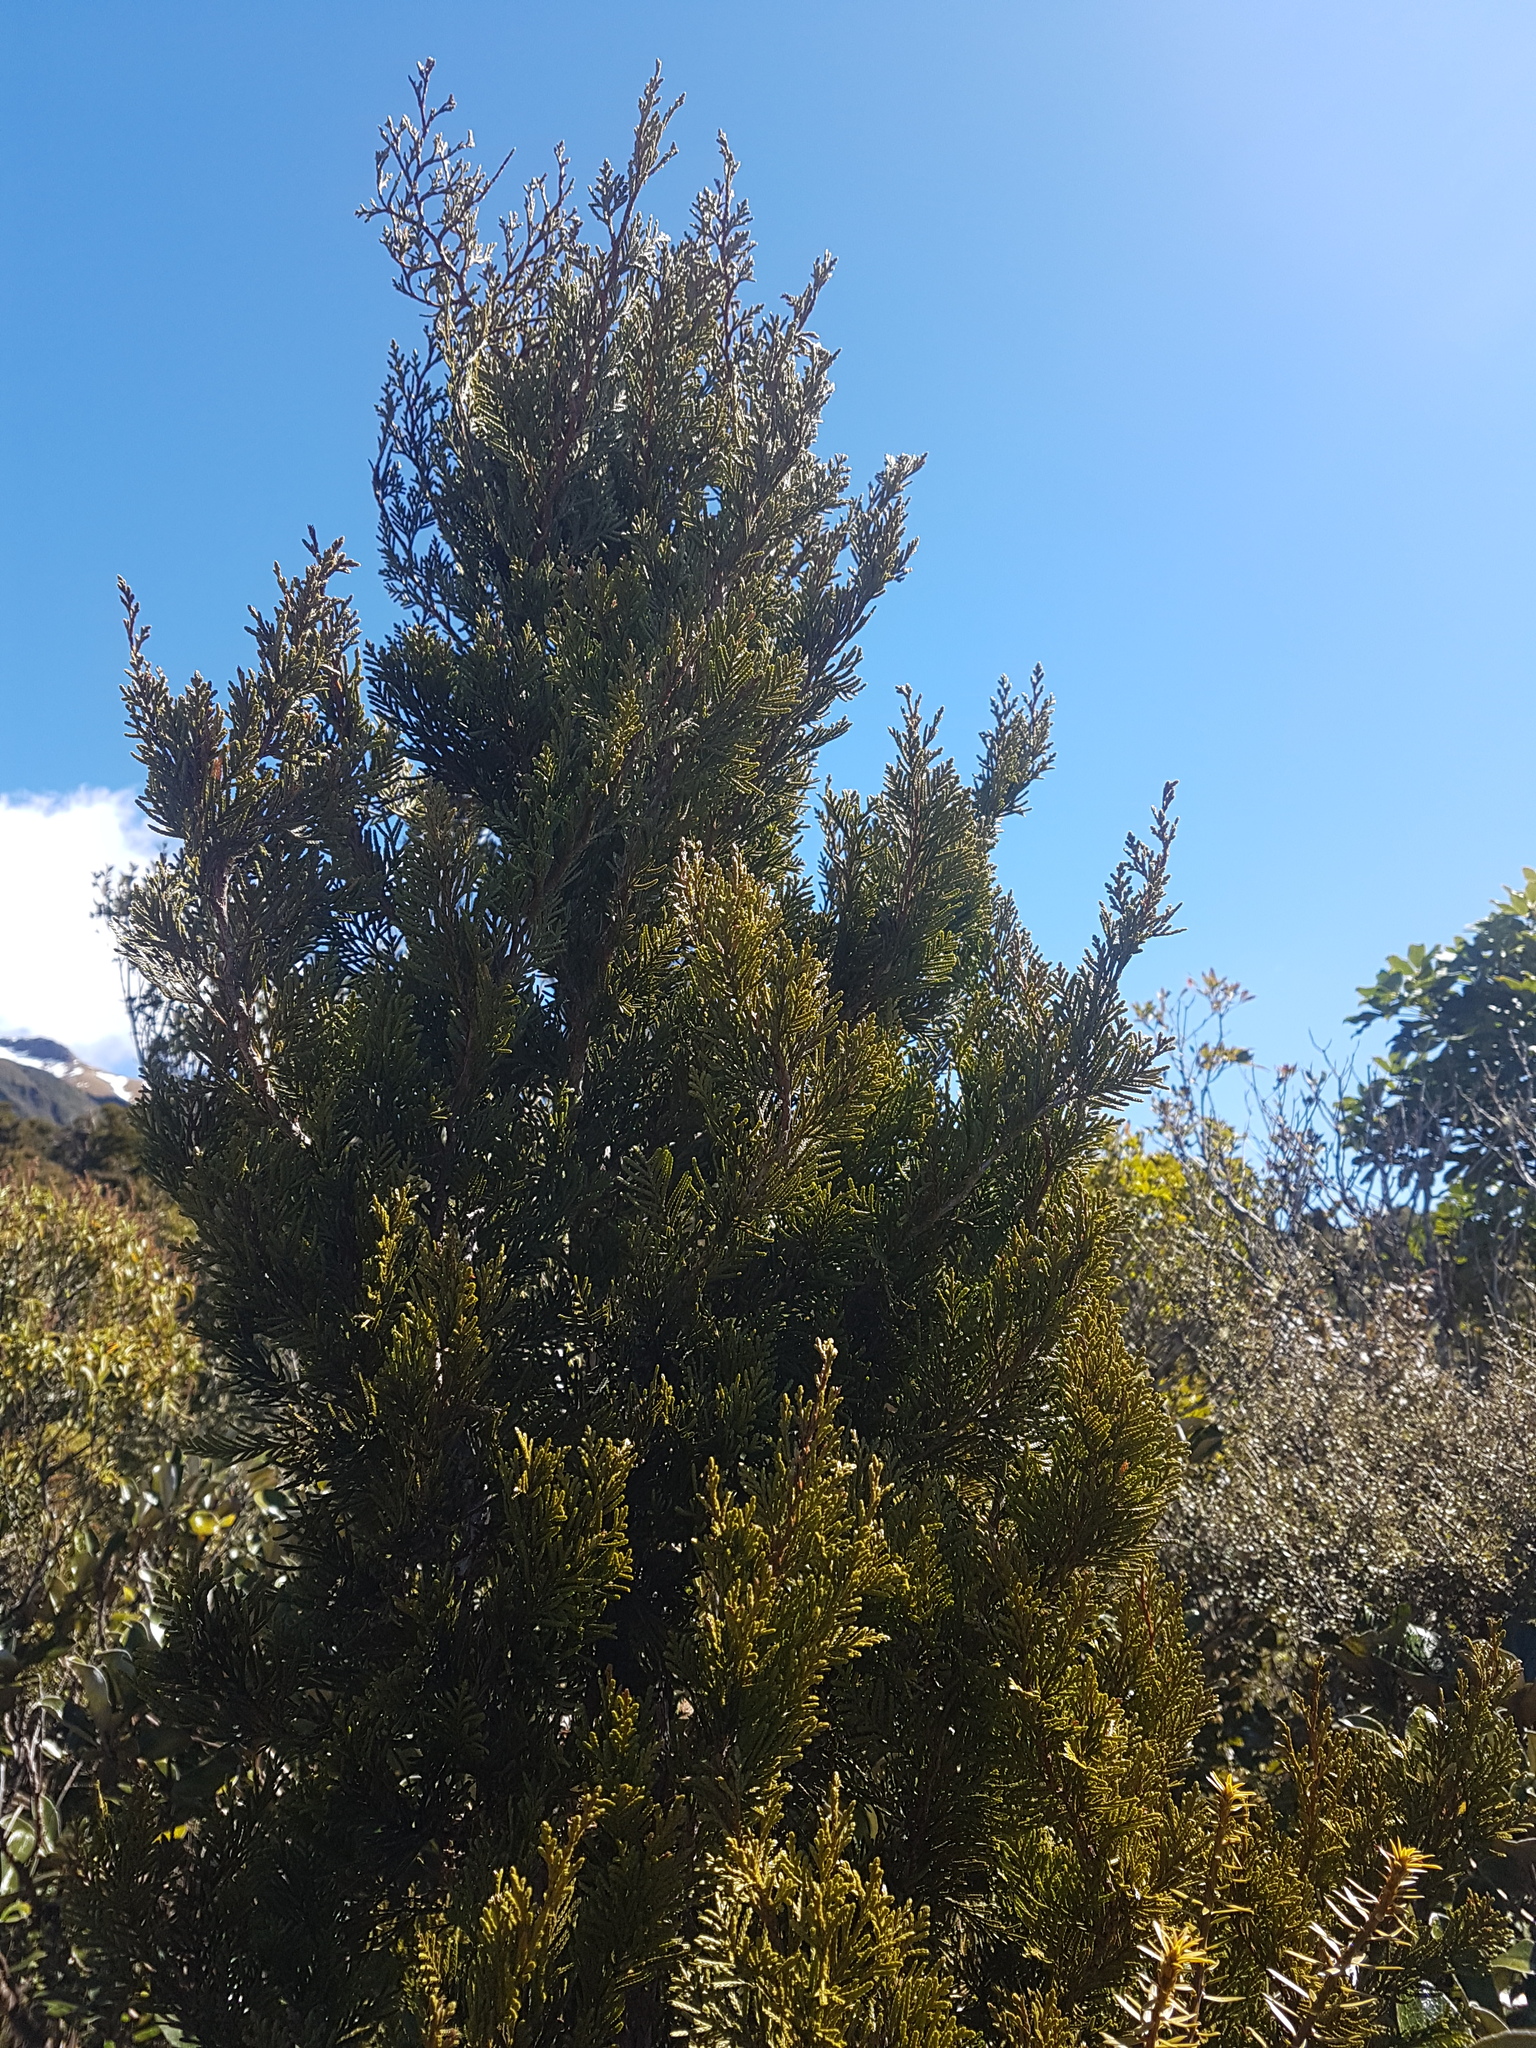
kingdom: Plantae
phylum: Tracheophyta
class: Pinopsida
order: Pinales
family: Cupressaceae
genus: Libocedrus
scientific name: Libocedrus bidwillii
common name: Cedar
